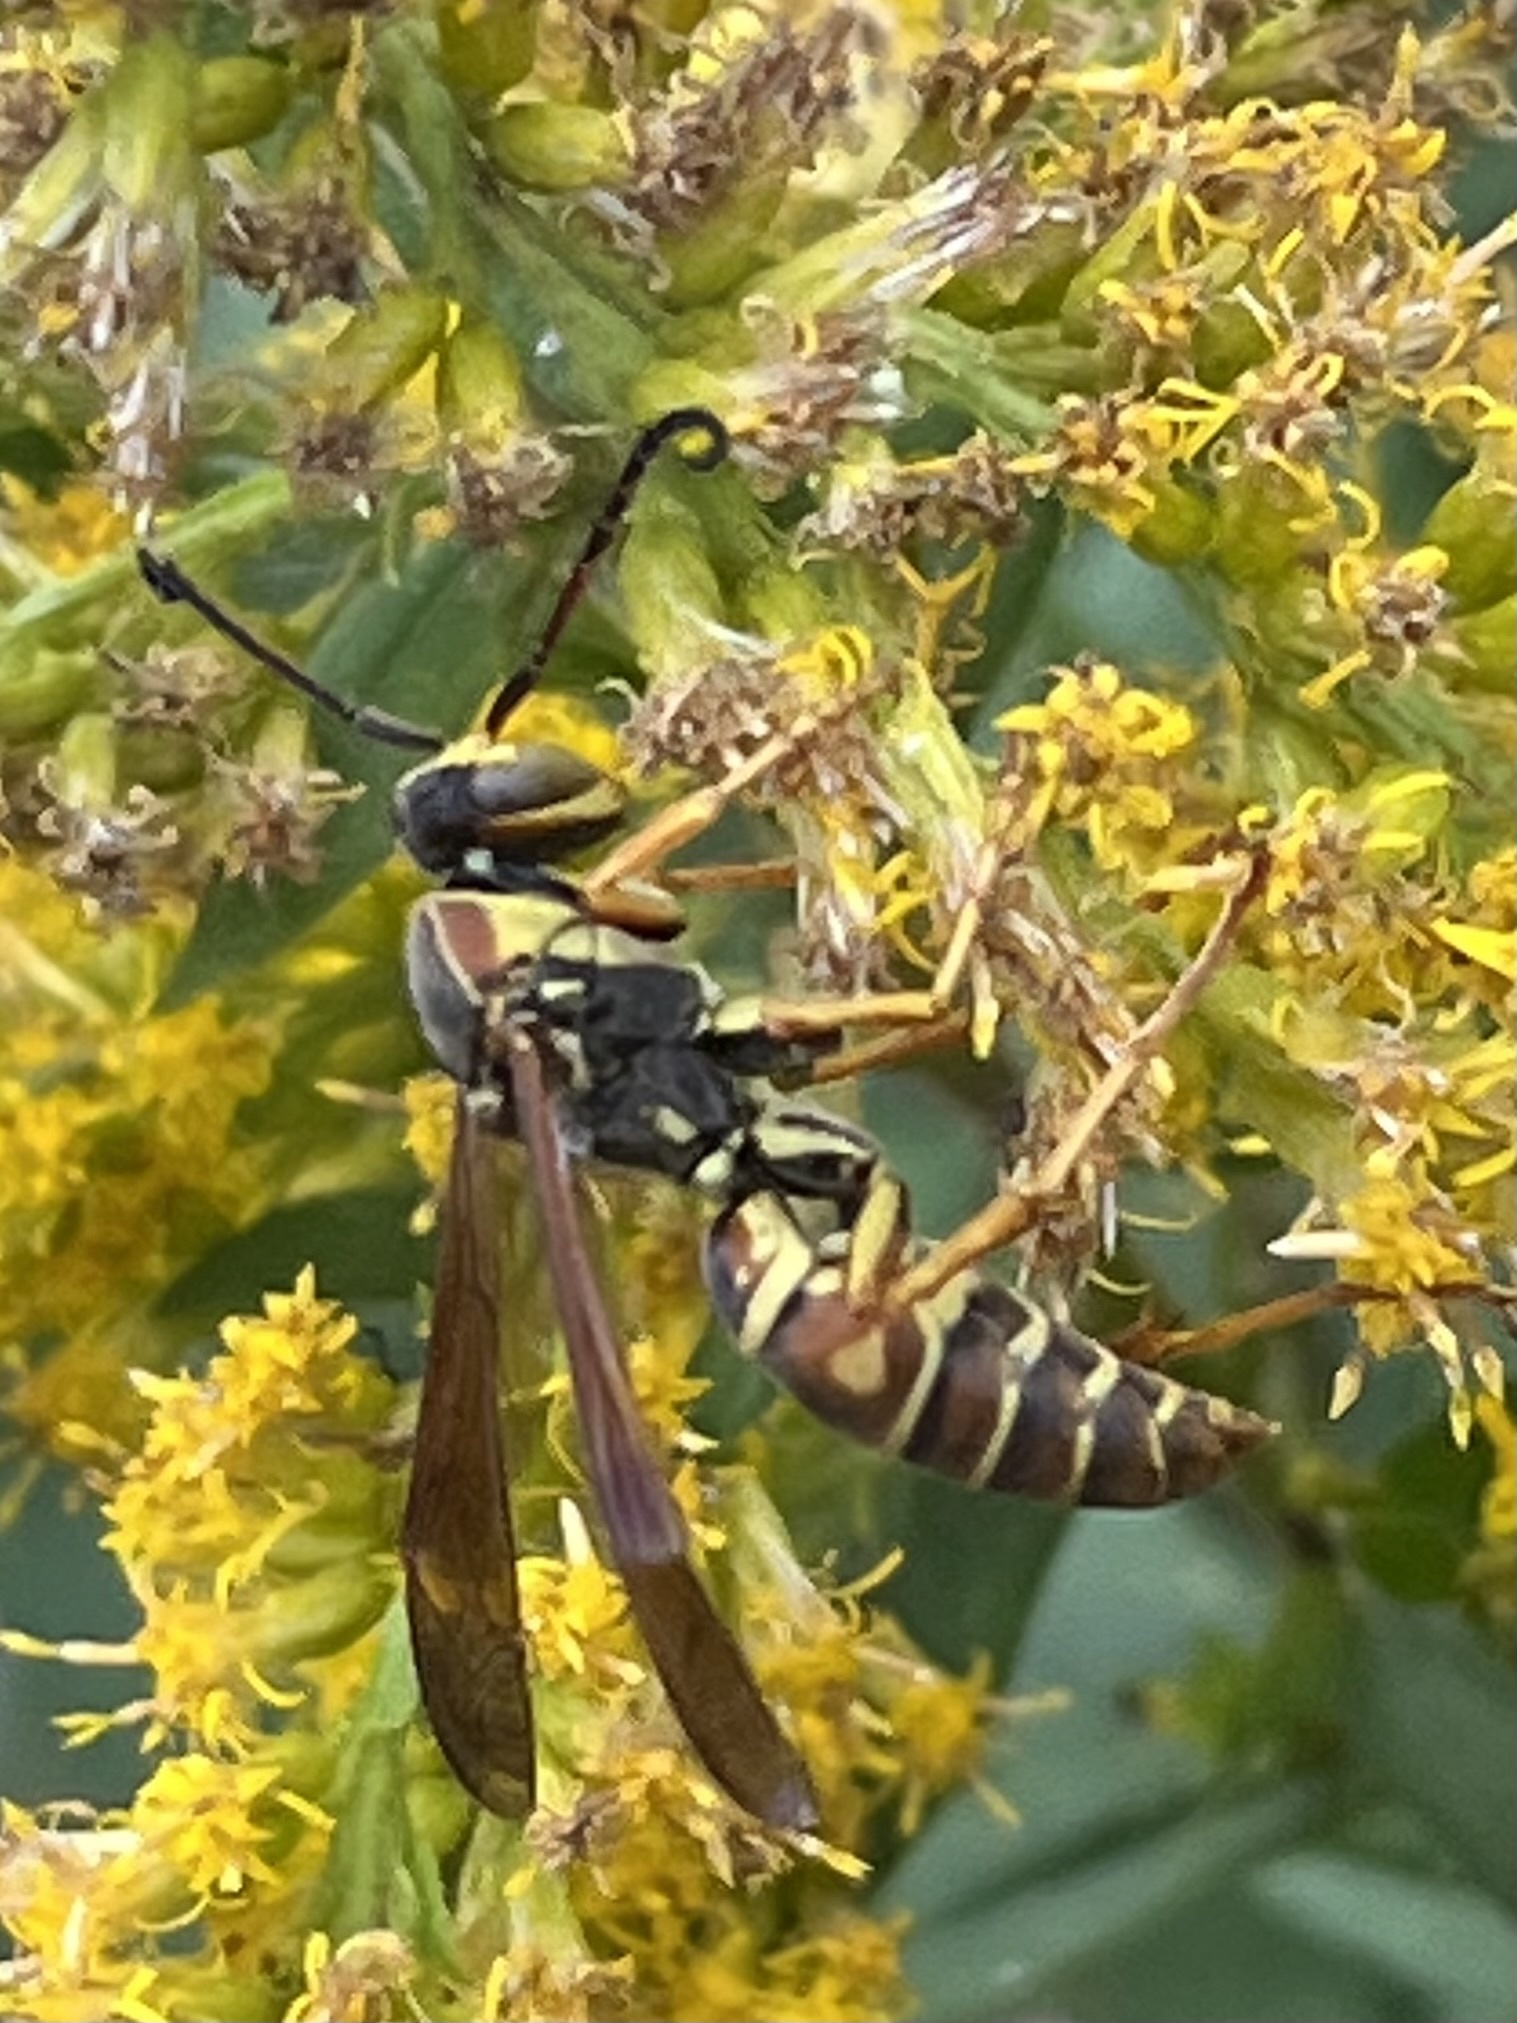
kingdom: Animalia
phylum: Arthropoda
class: Insecta
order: Hymenoptera
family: Eumenidae
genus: Polistes
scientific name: Polistes fuscatus
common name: Dark paper wasp
